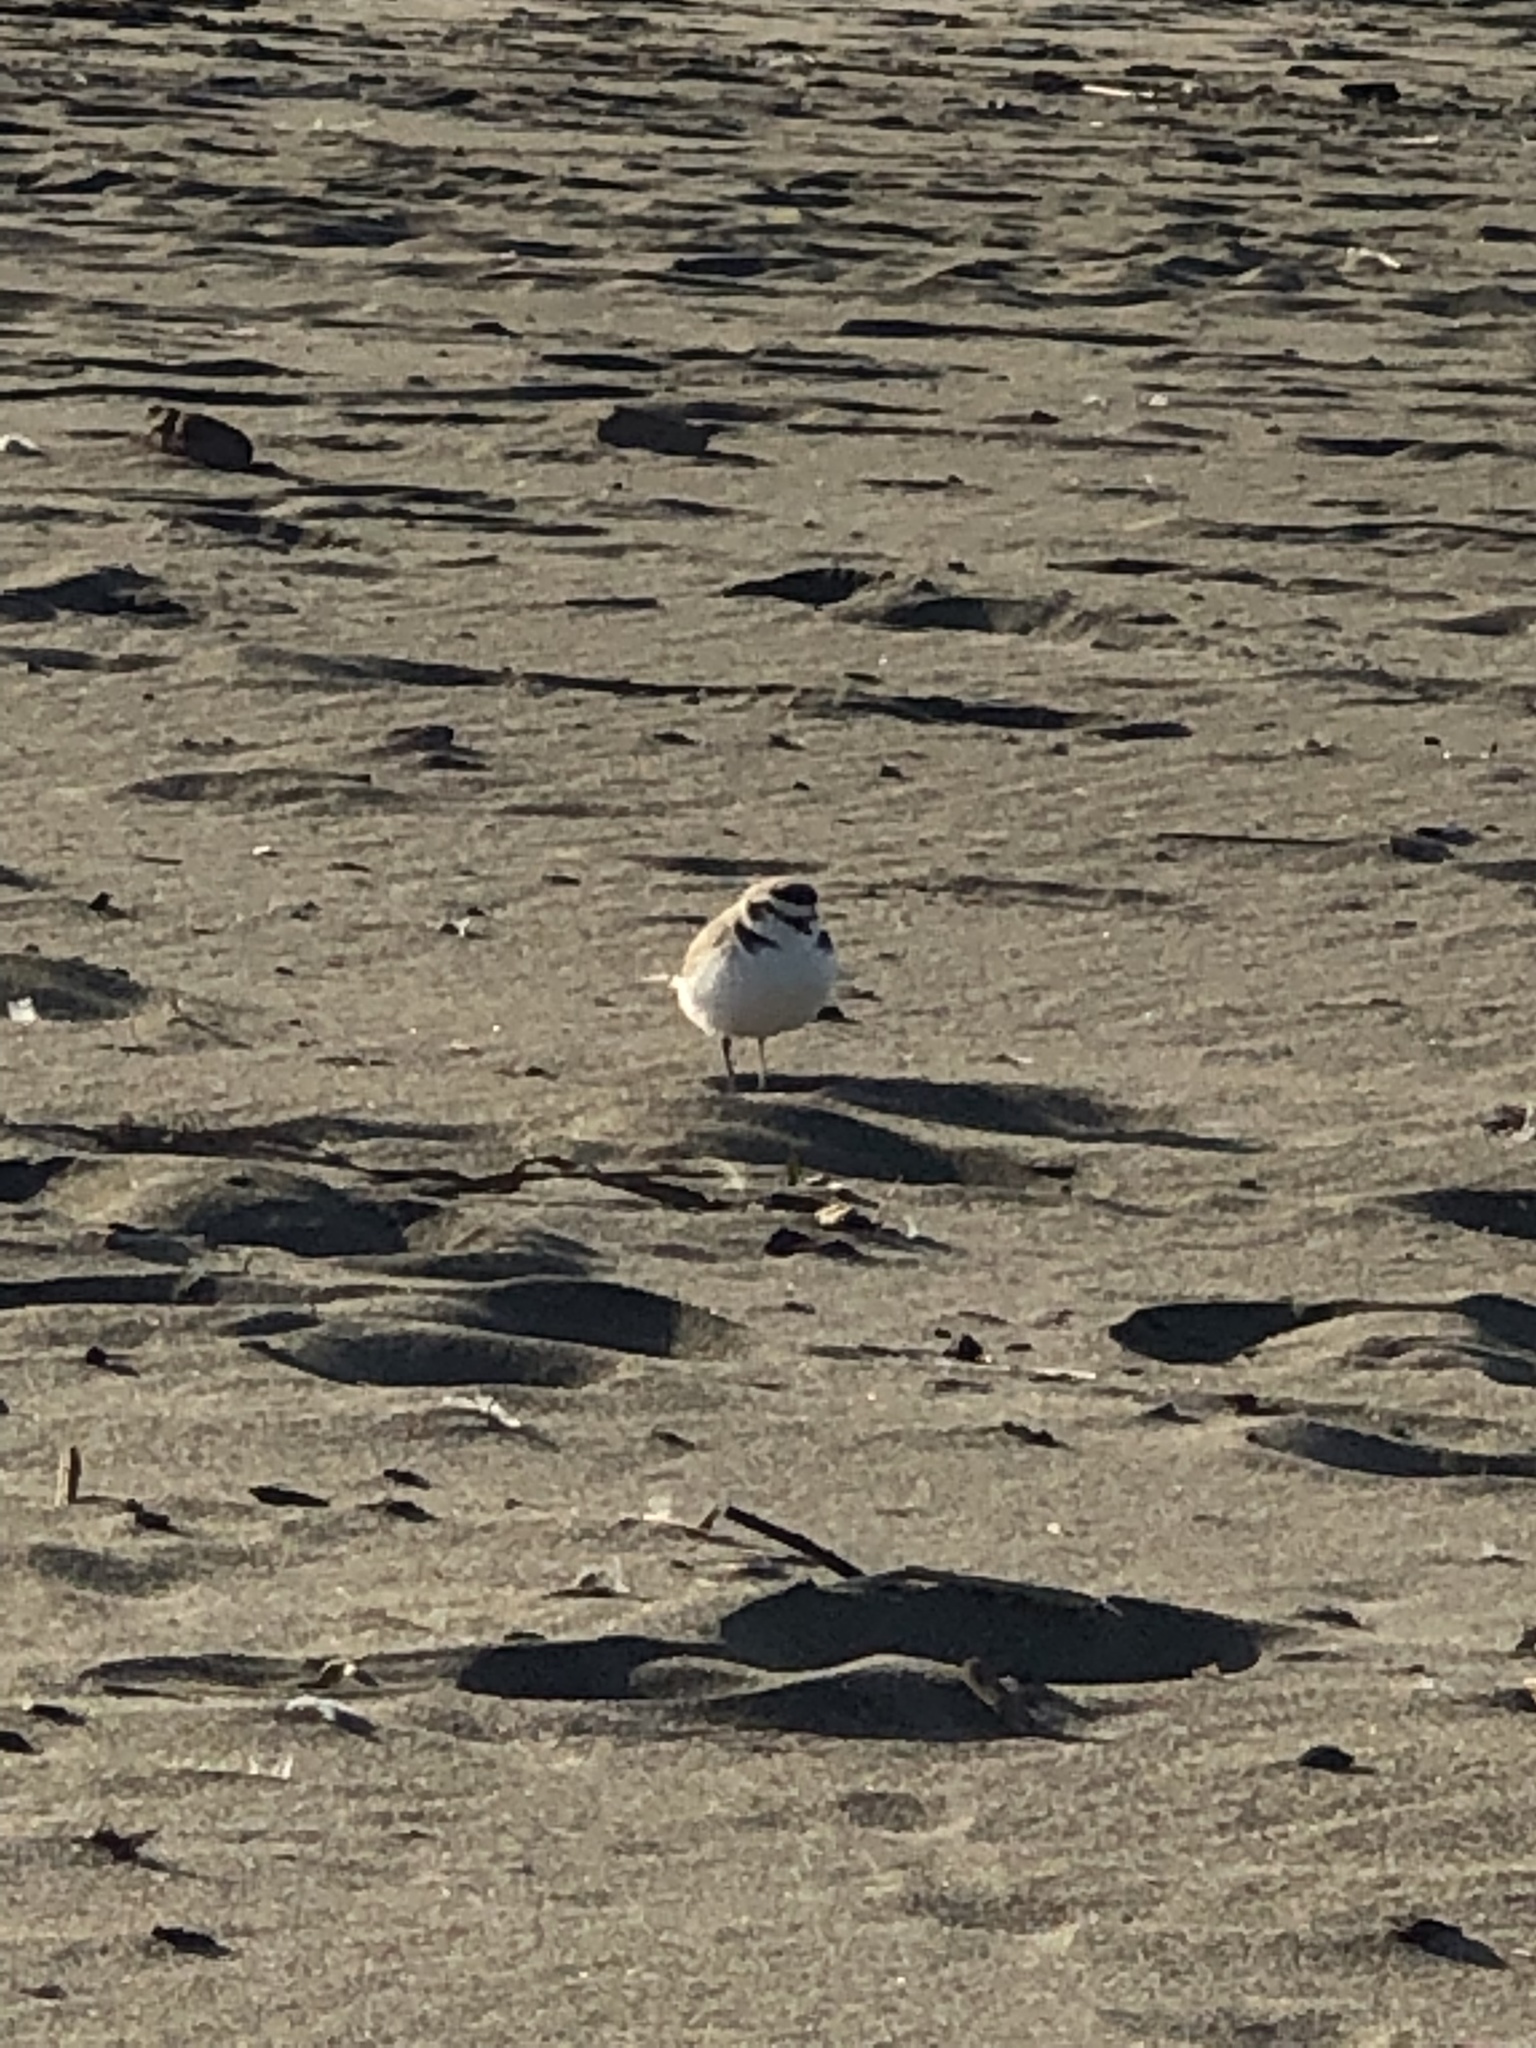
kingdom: Animalia
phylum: Chordata
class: Aves
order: Charadriiformes
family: Charadriidae
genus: Anarhynchus
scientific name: Anarhynchus
